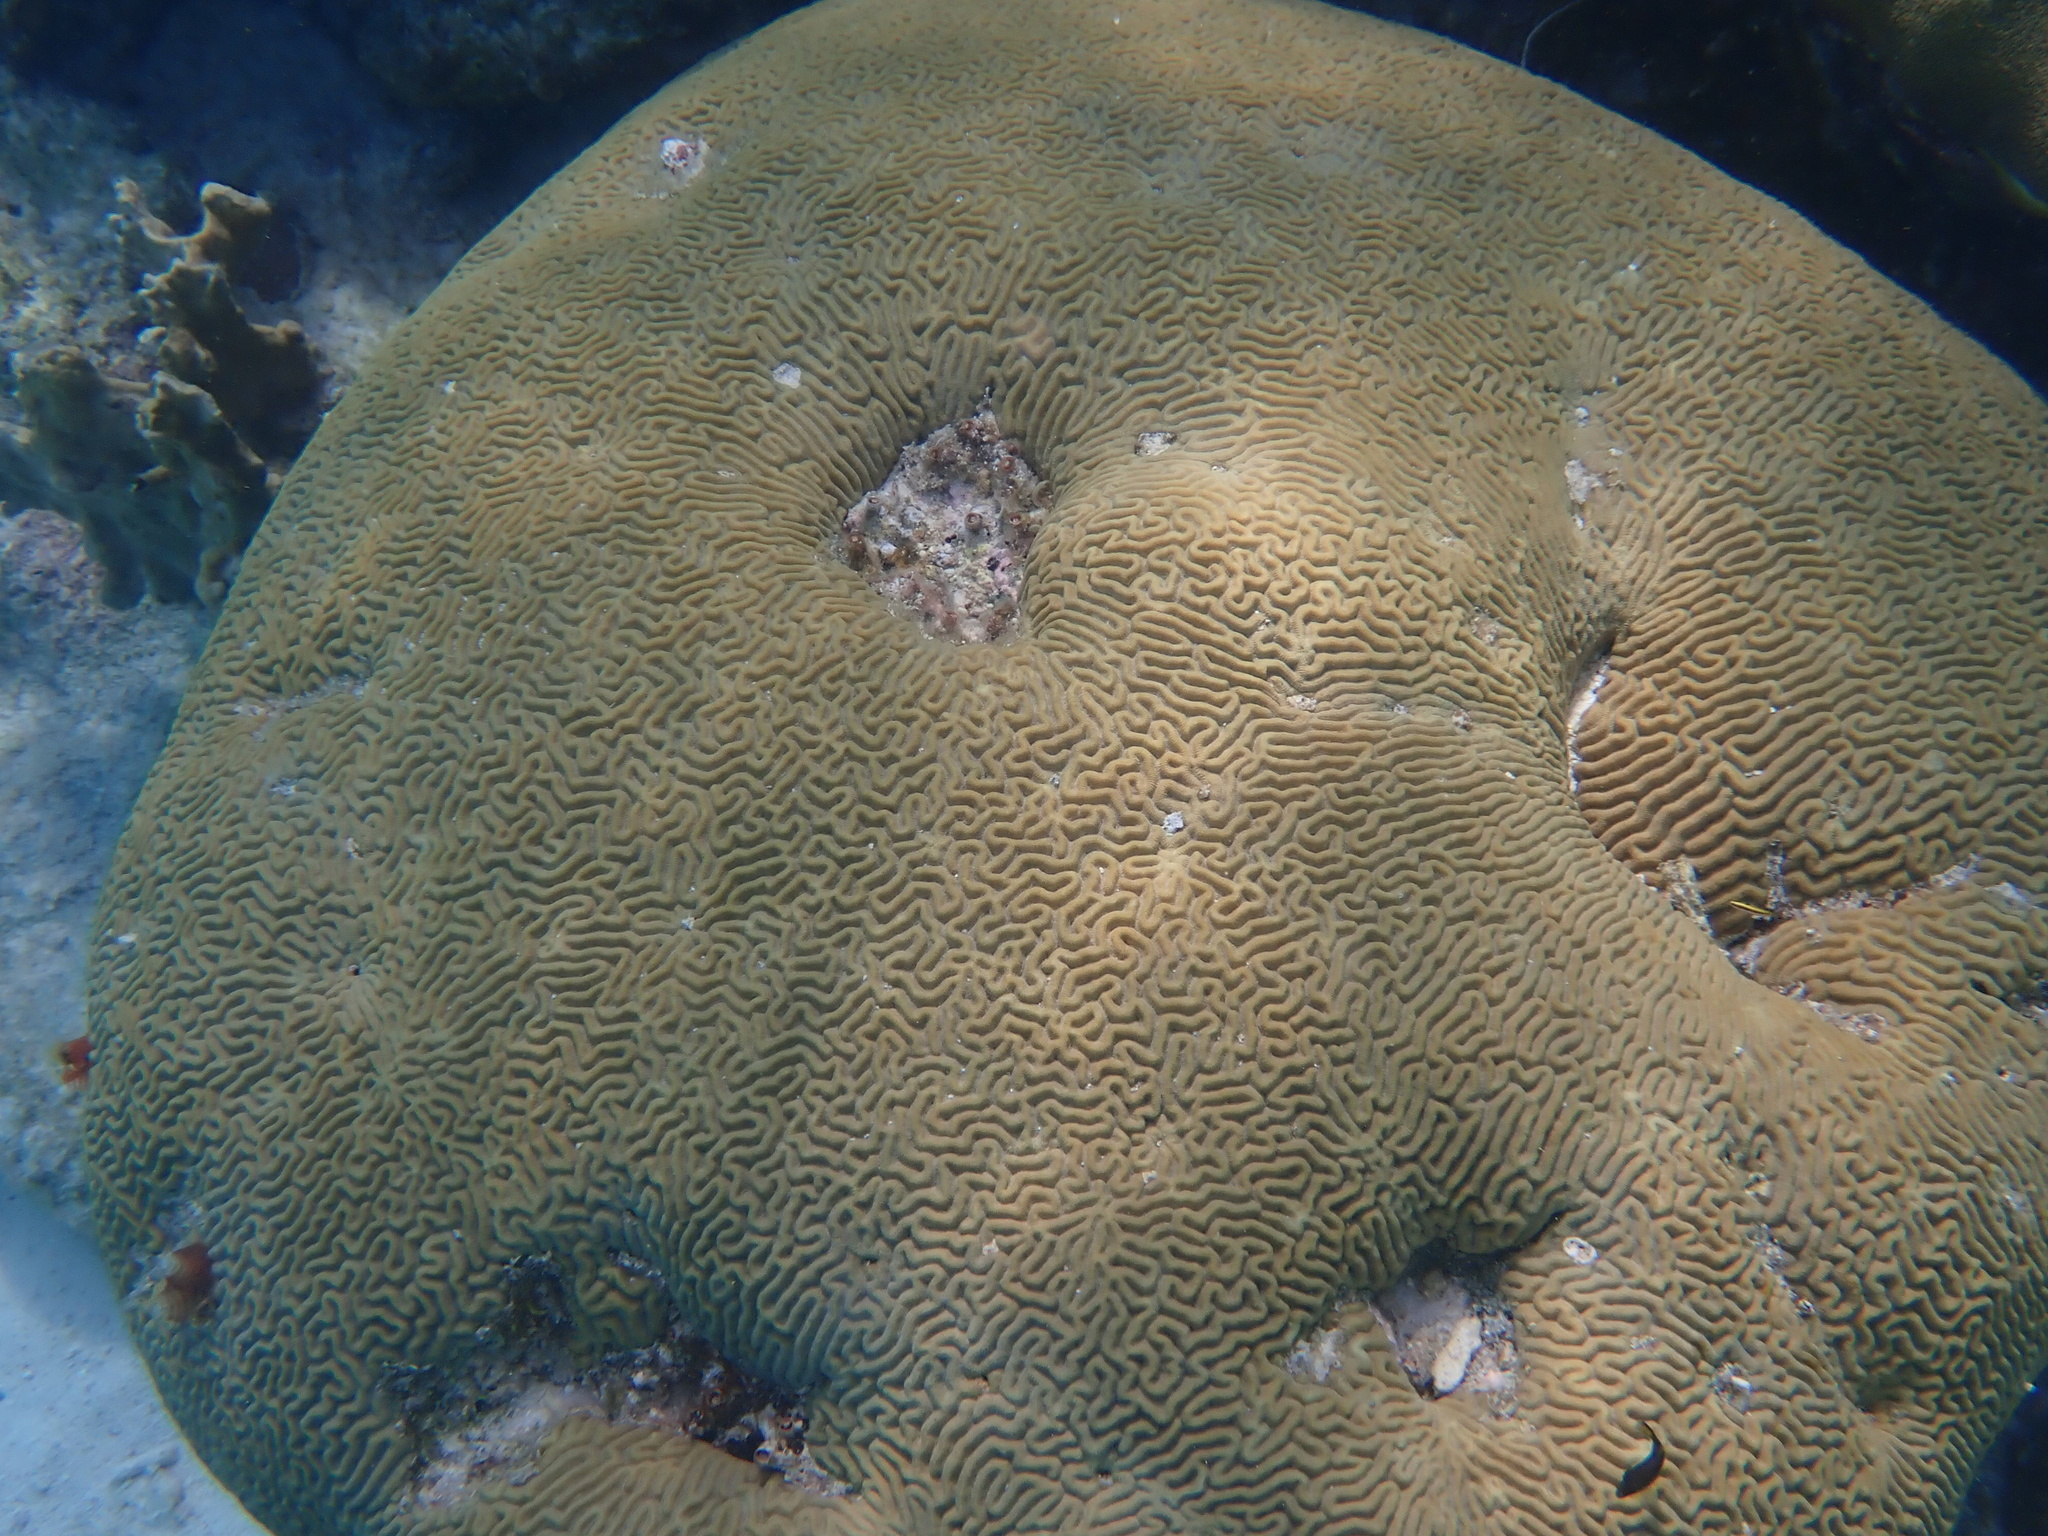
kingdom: Animalia
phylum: Cnidaria
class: Anthozoa
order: Scleractinia
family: Faviidae
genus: Pseudodiploria
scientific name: Pseudodiploria strigosa
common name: Symmetrical brain coral
